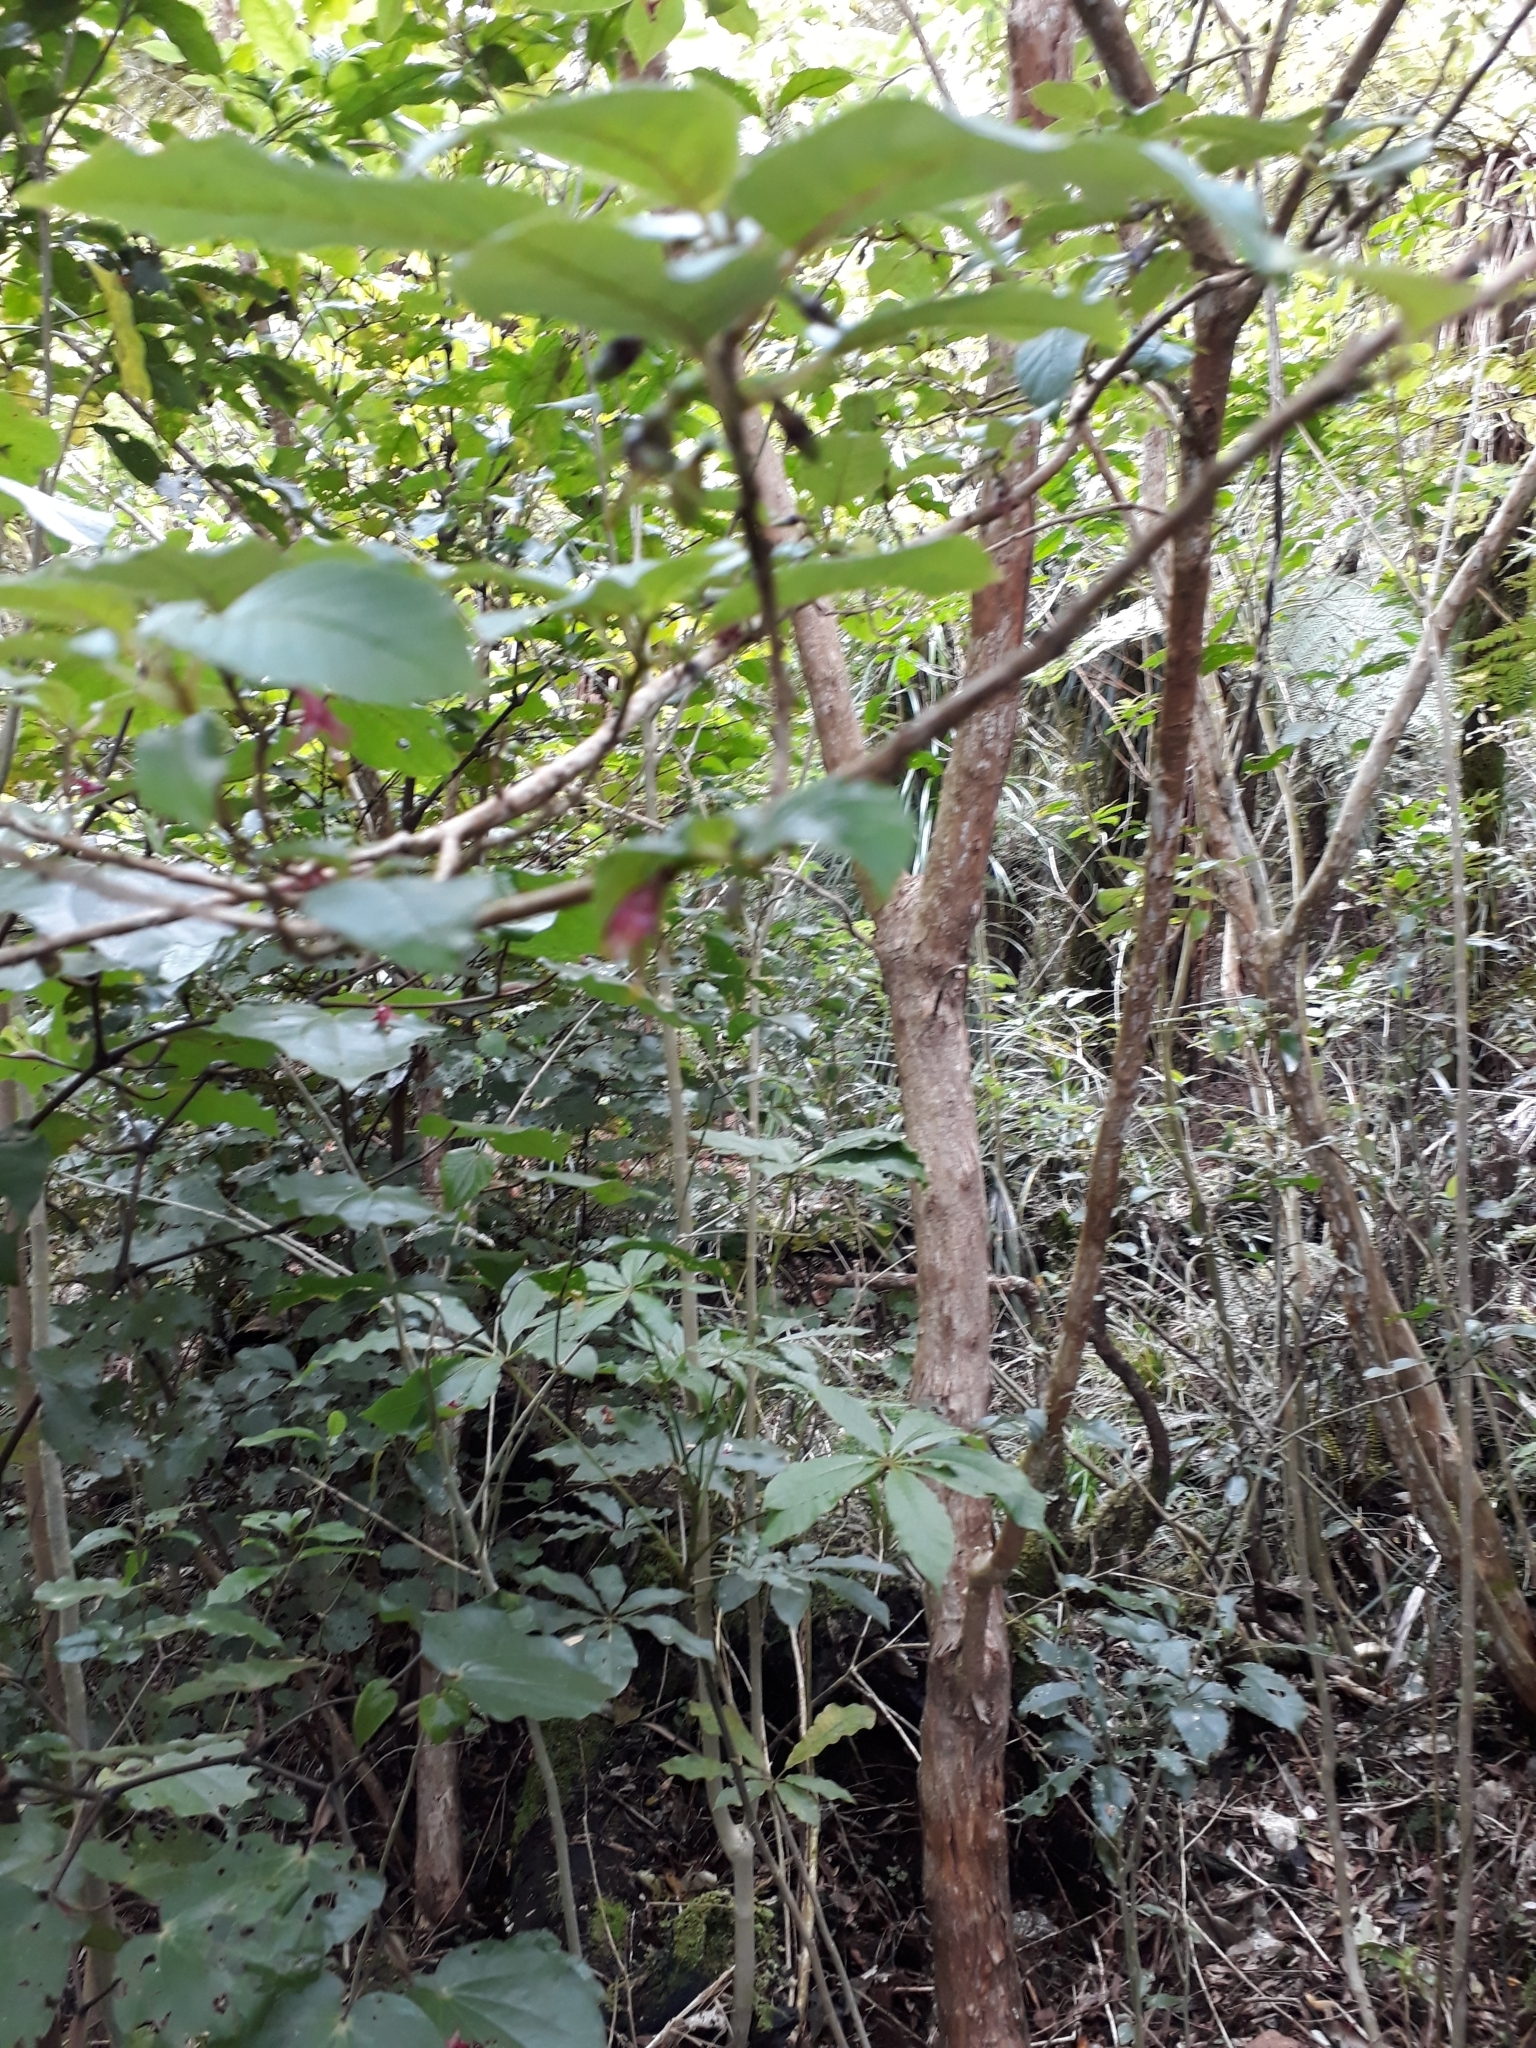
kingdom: Plantae
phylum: Tracheophyta
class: Magnoliopsida
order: Myrtales
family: Onagraceae
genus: Fuchsia
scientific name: Fuchsia excorticata
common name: Tree fuchsia
